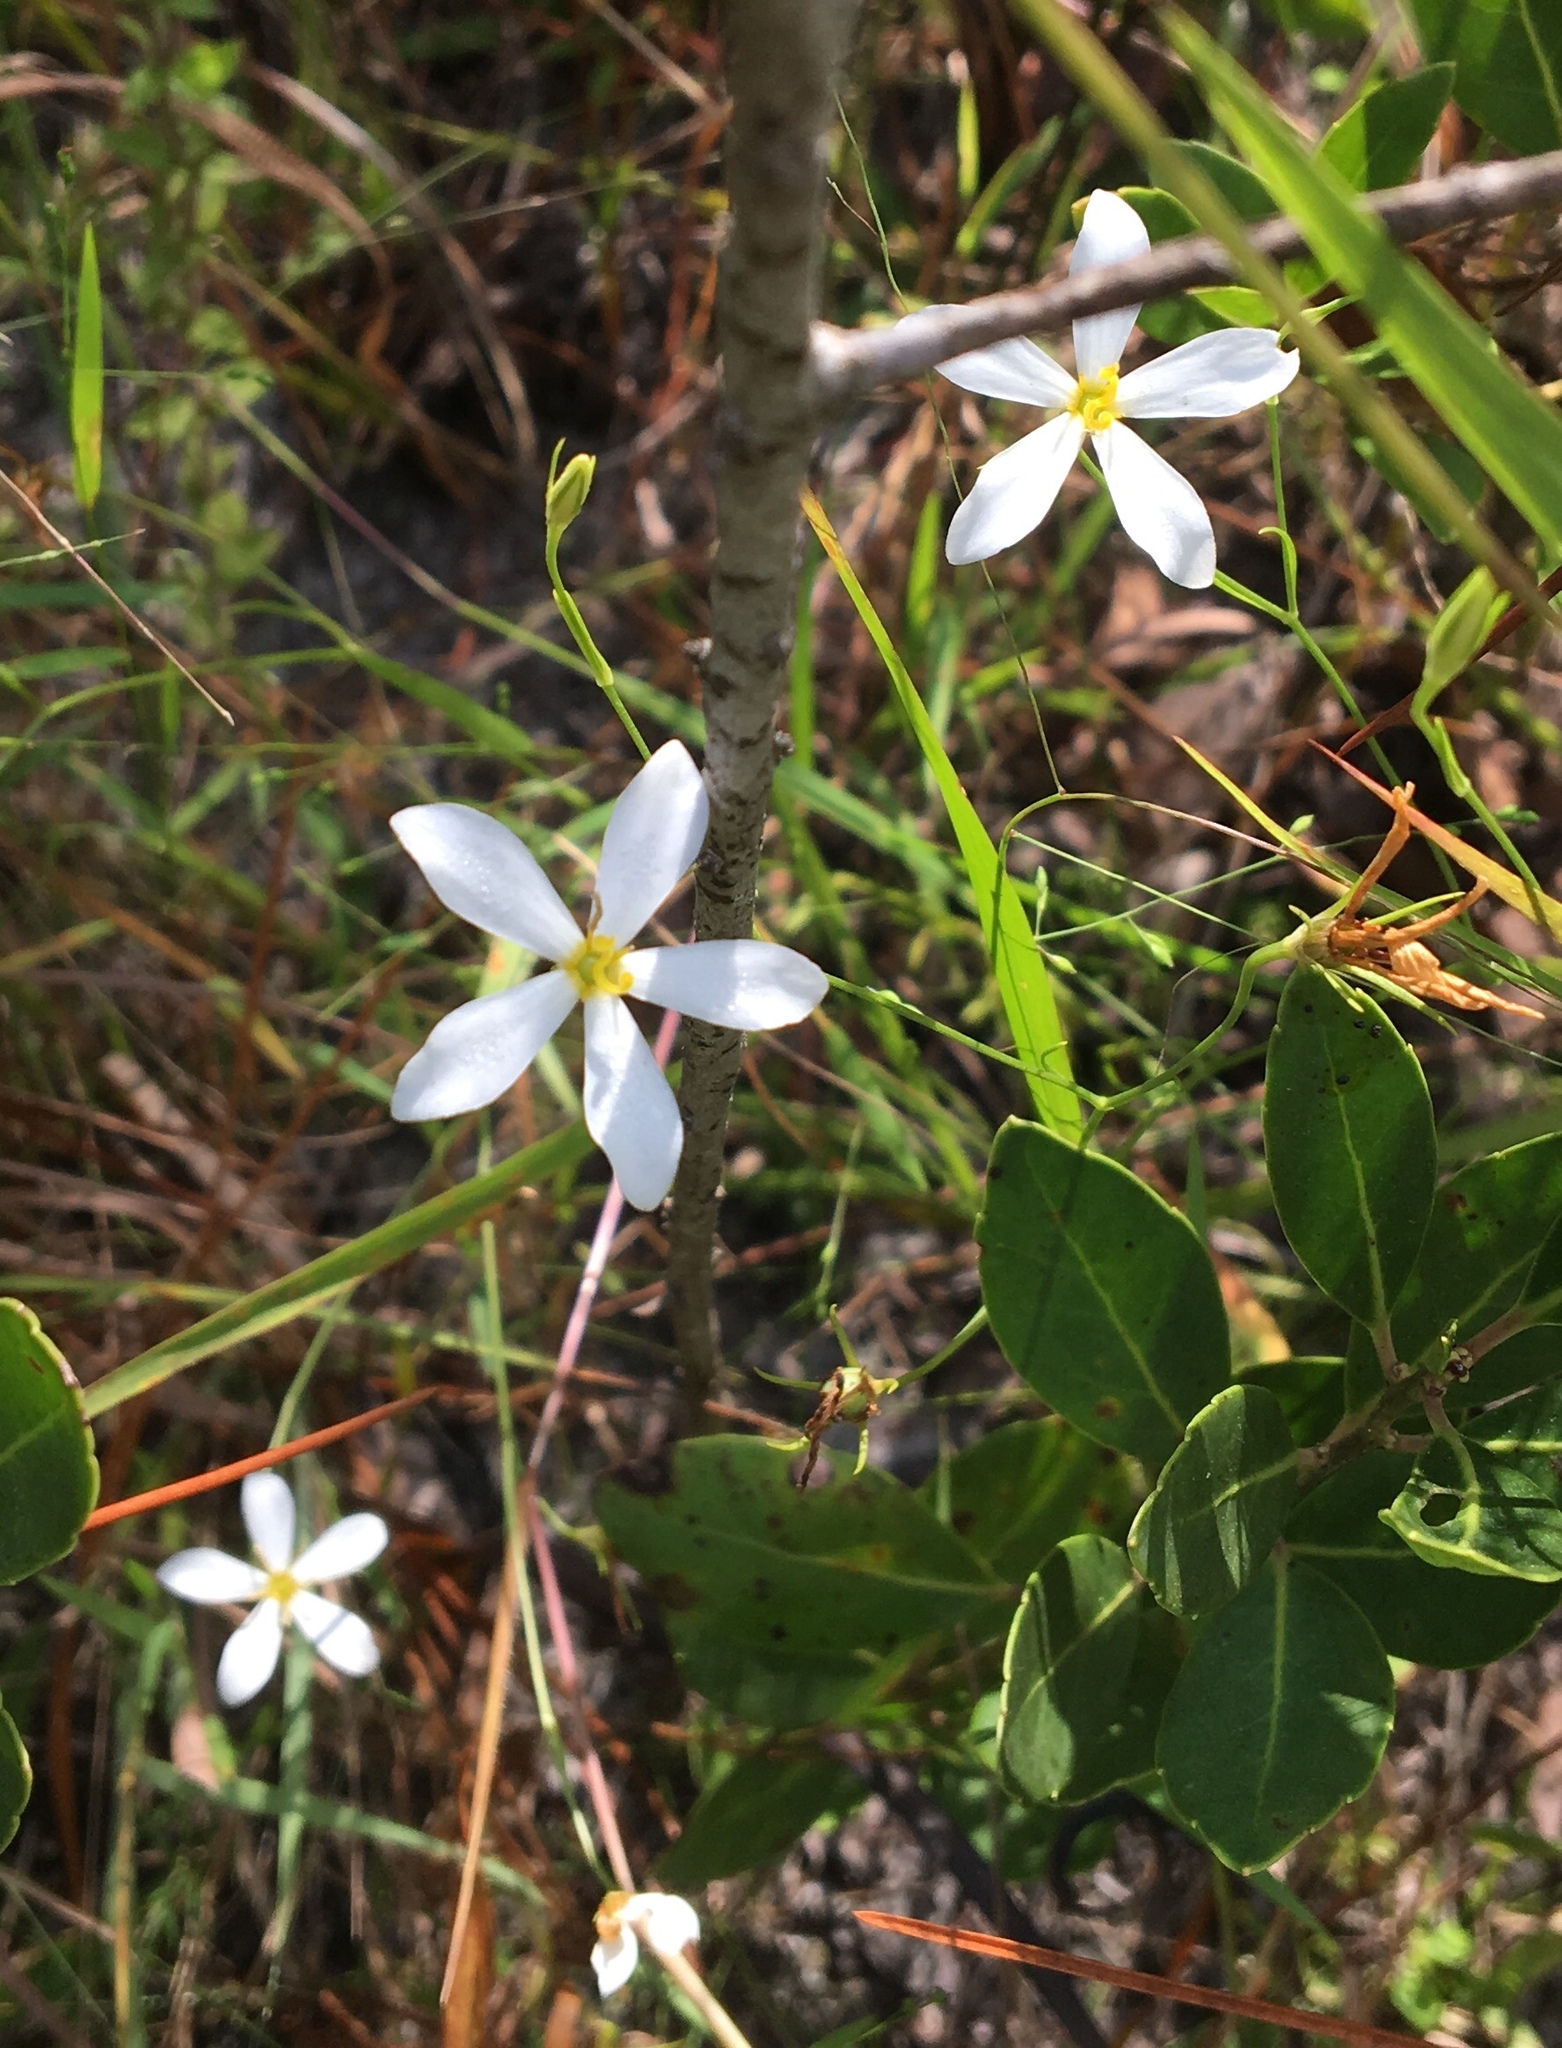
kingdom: Plantae
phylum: Tracheophyta
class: Magnoliopsida
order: Gentianales
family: Gentianaceae
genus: Sabatia
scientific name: Sabatia brevifolia
